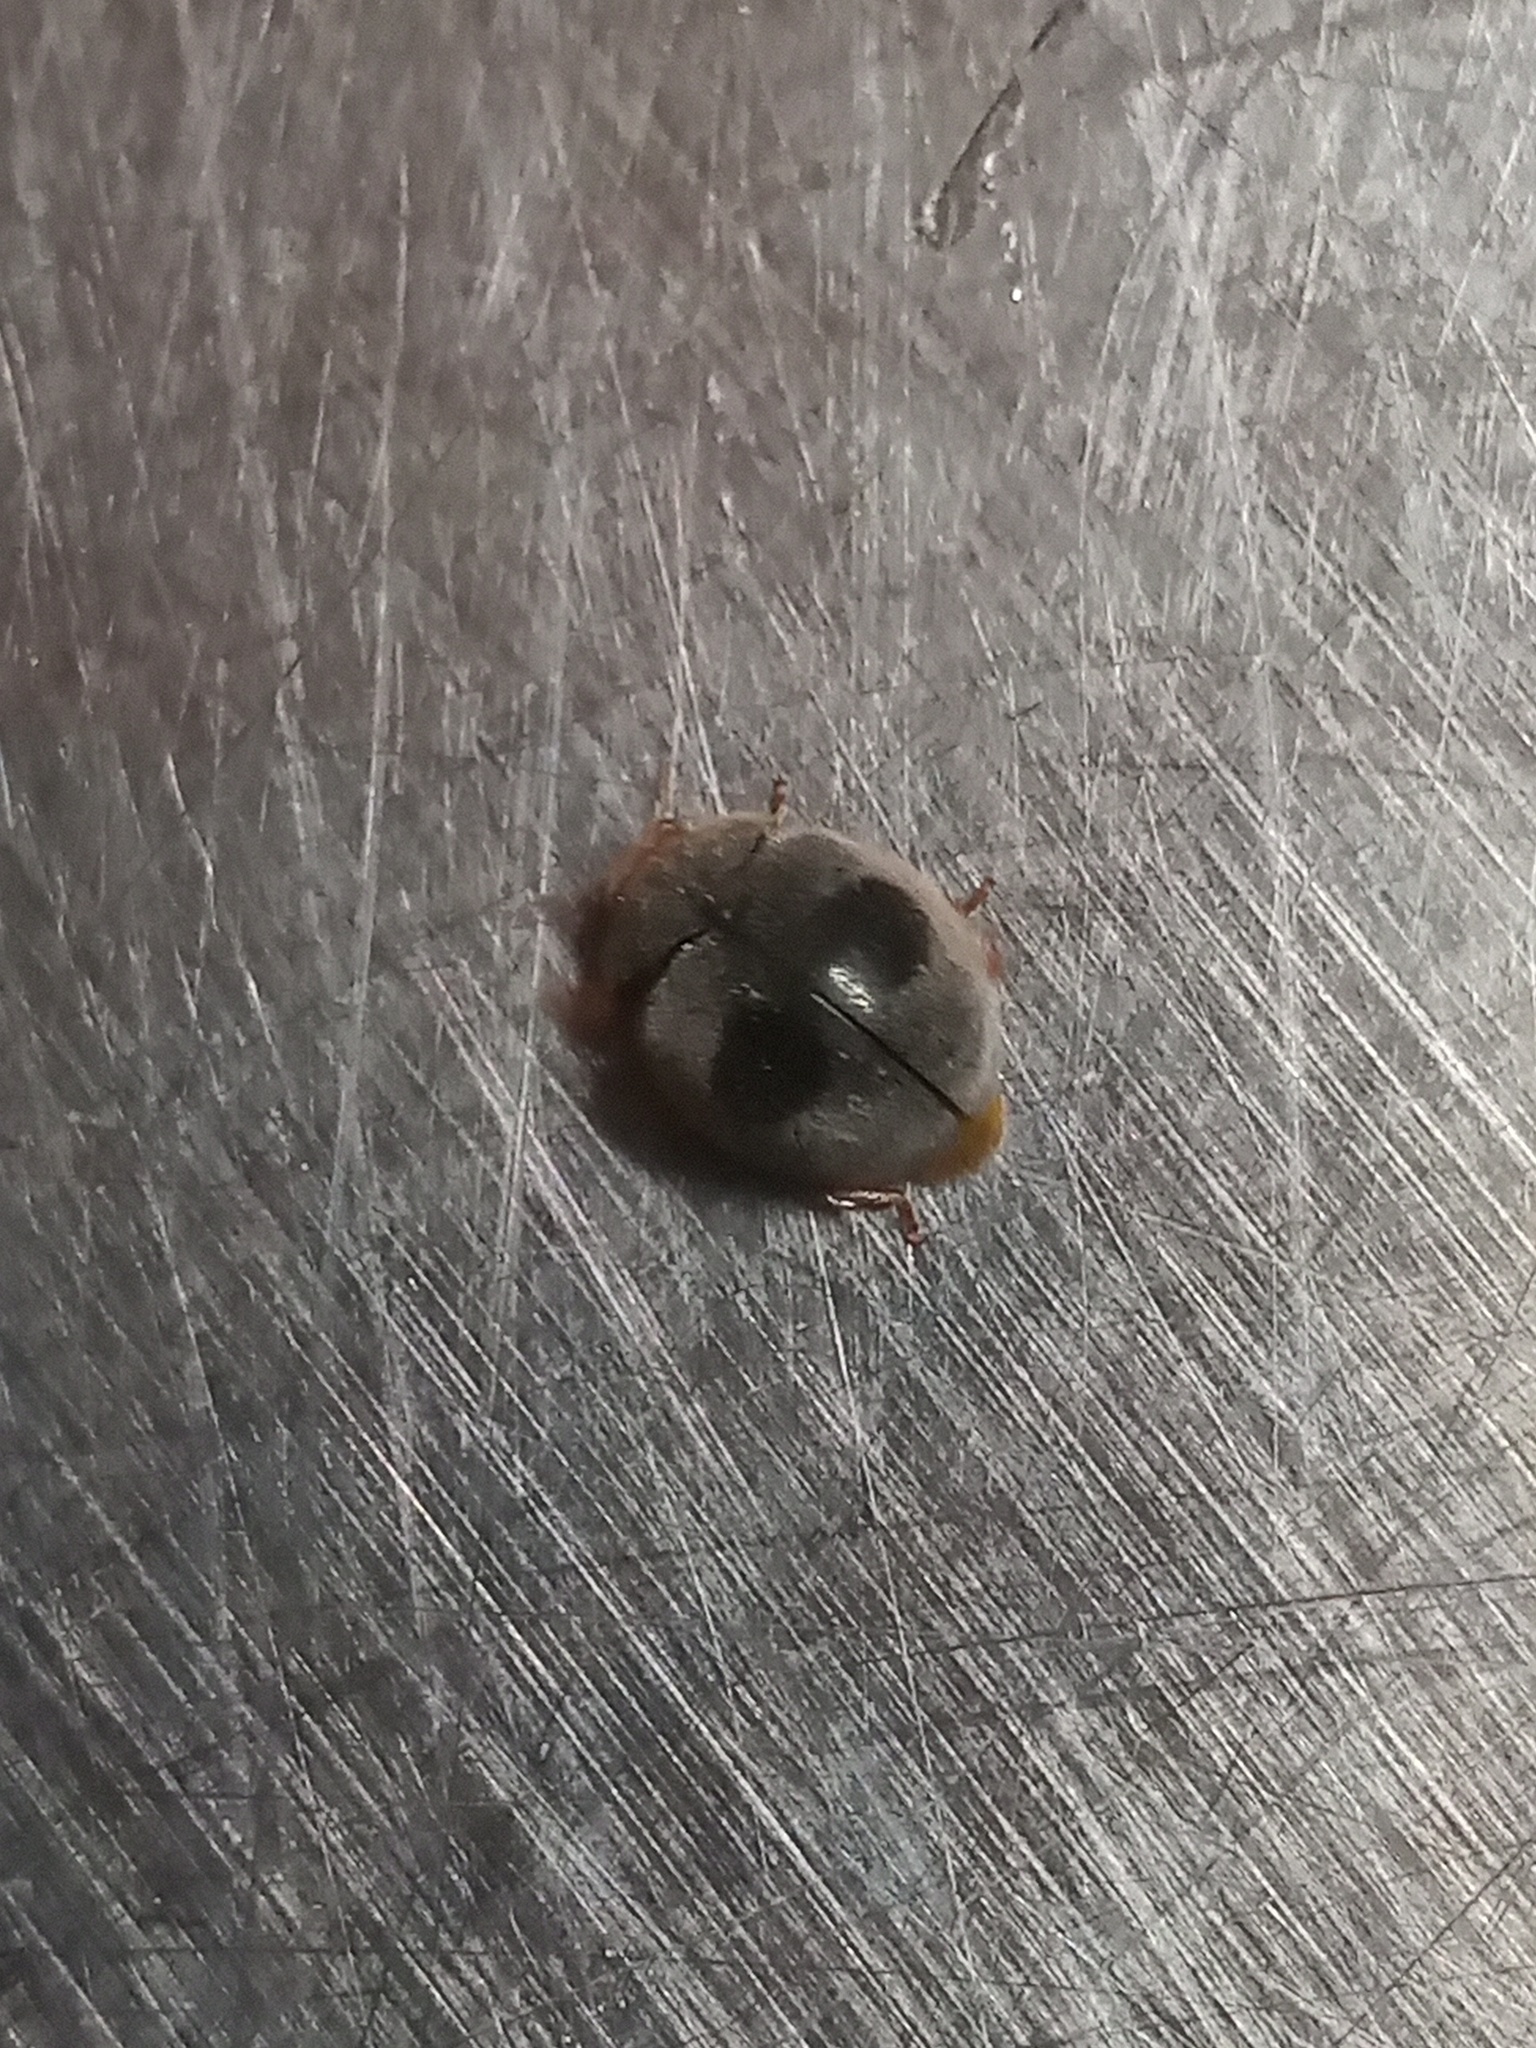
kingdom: Animalia
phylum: Arthropoda
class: Insecta
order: Coleoptera
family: Coccinellidae
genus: Azya
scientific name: Azya orbigera
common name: Ladybird beetle
